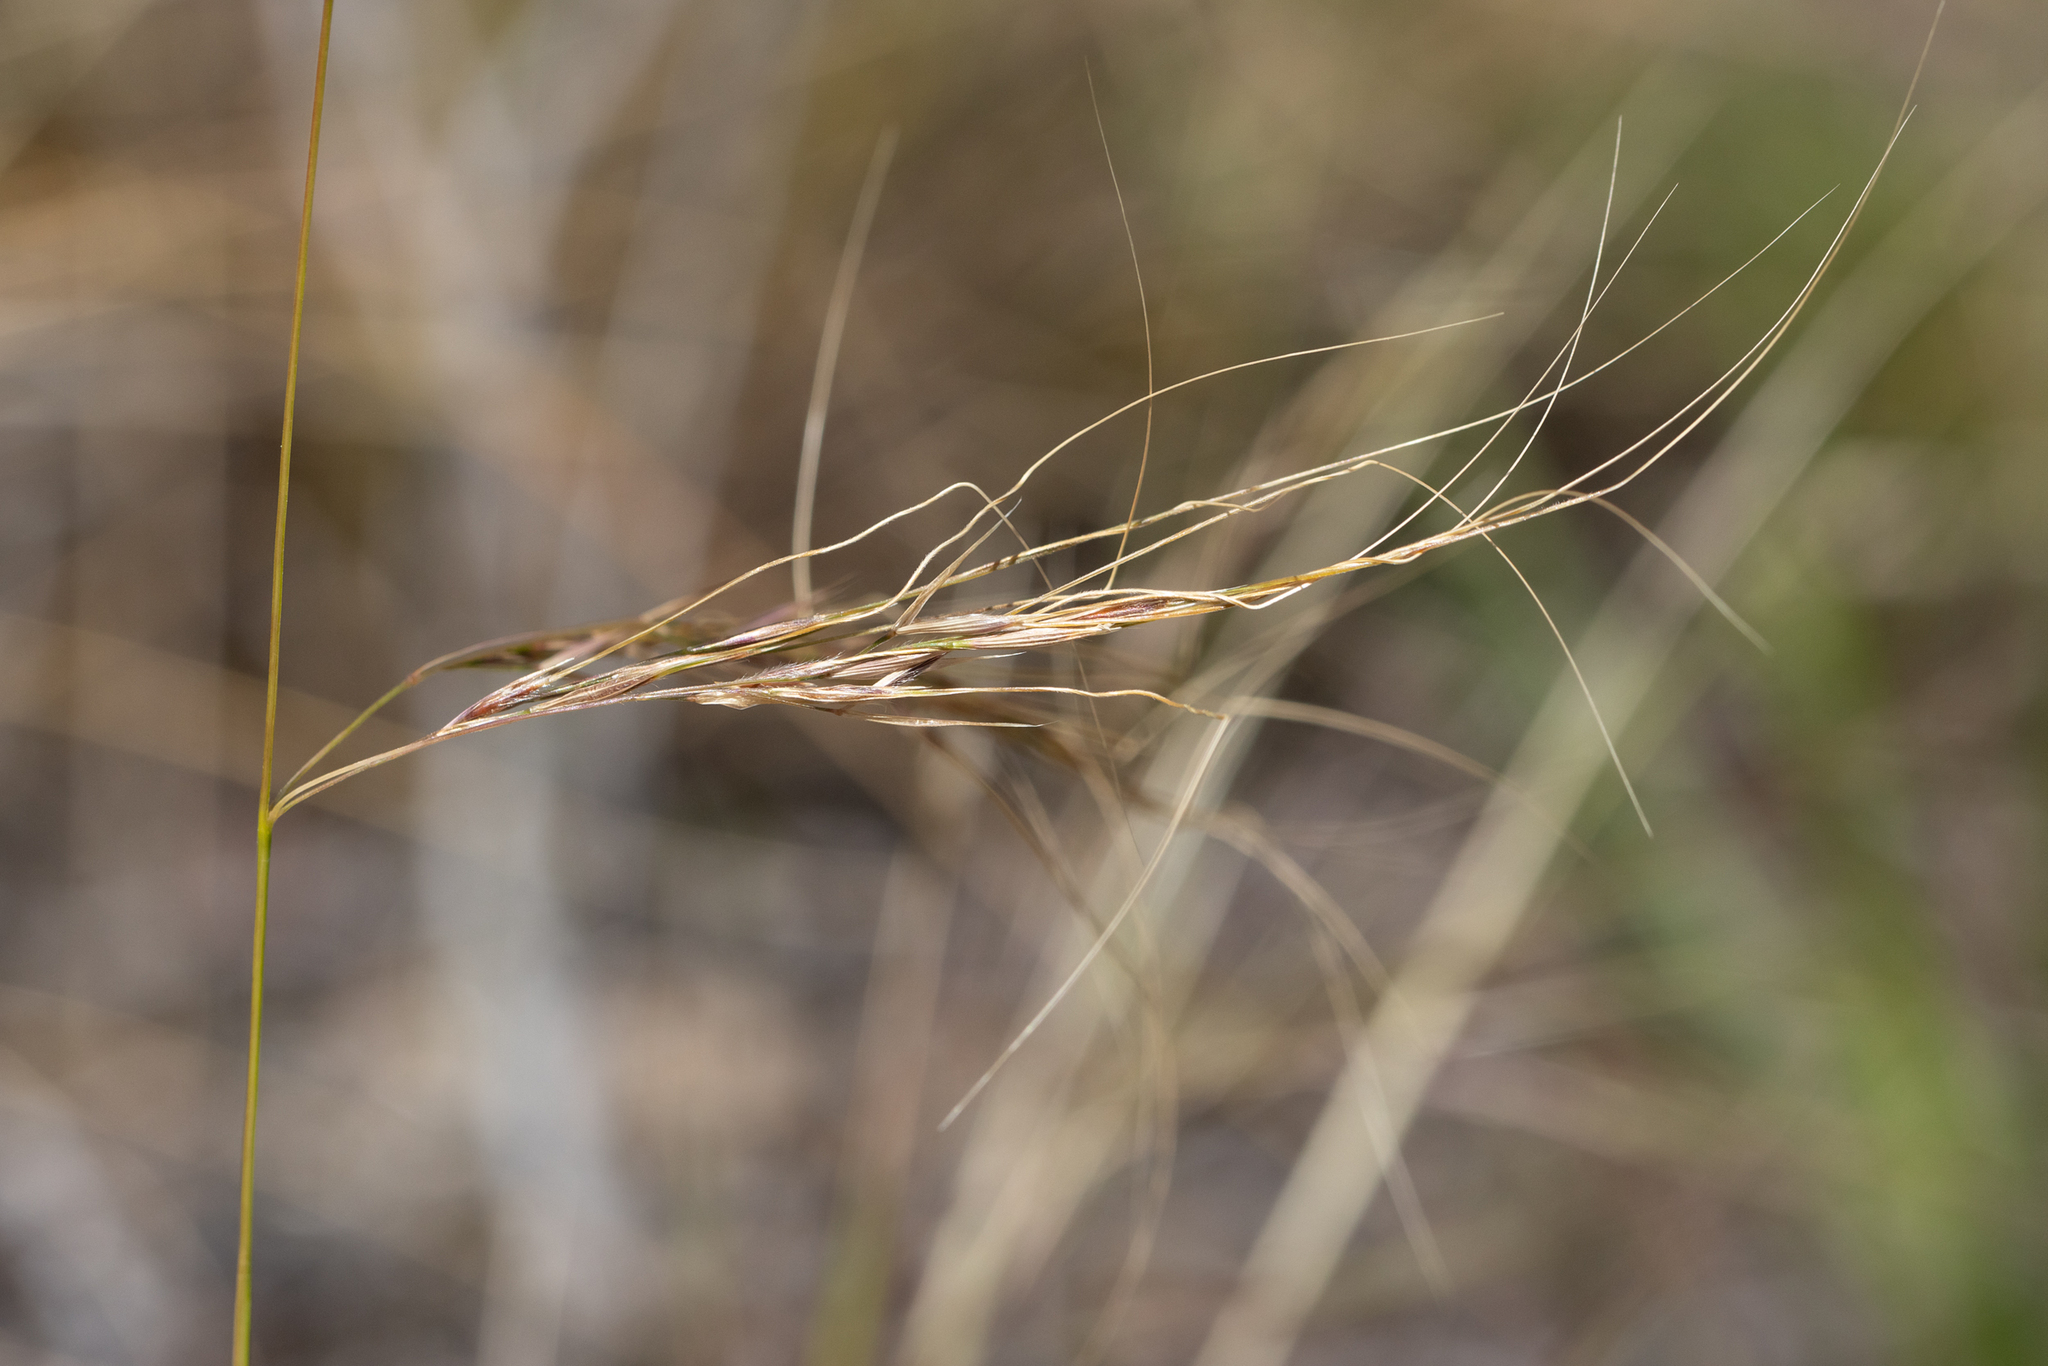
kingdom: Plantae
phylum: Tracheophyta
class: Liliopsida
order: Poales
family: Poaceae
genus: Austrostipa
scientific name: Austrostipa flavescens
